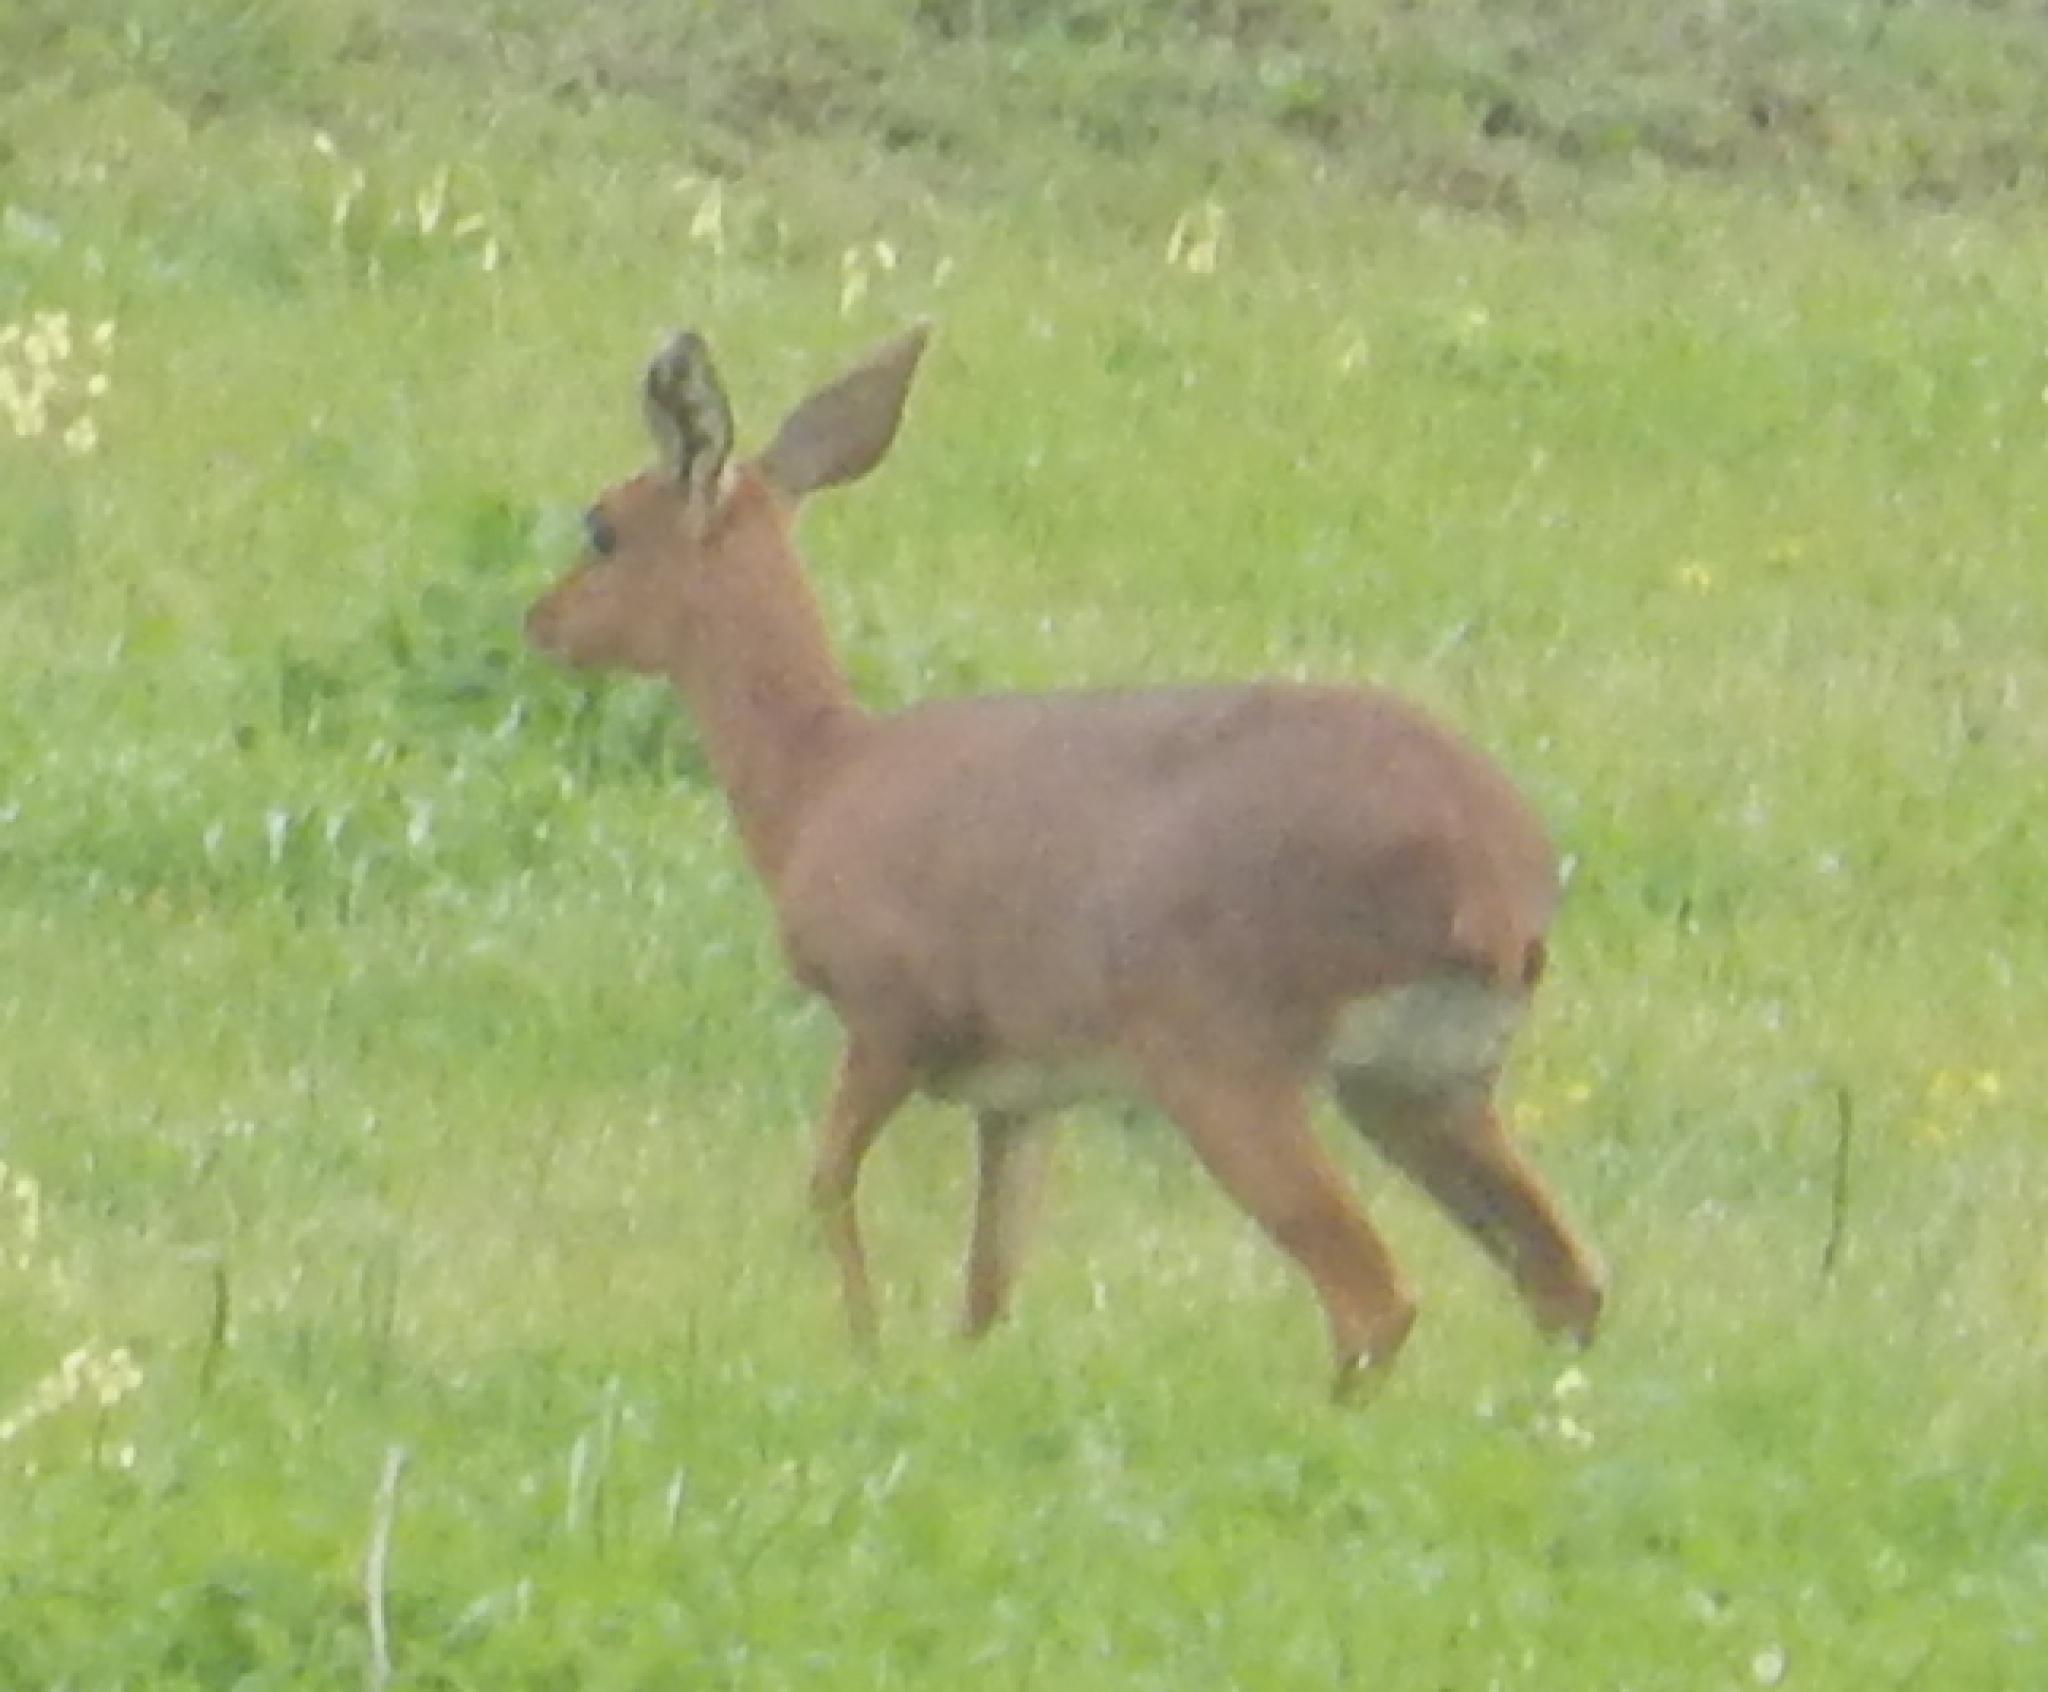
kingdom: Animalia
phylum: Chordata
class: Mammalia
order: Artiodactyla
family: Bovidae
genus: Raphicerus
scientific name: Raphicerus campestris
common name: Steenbok
